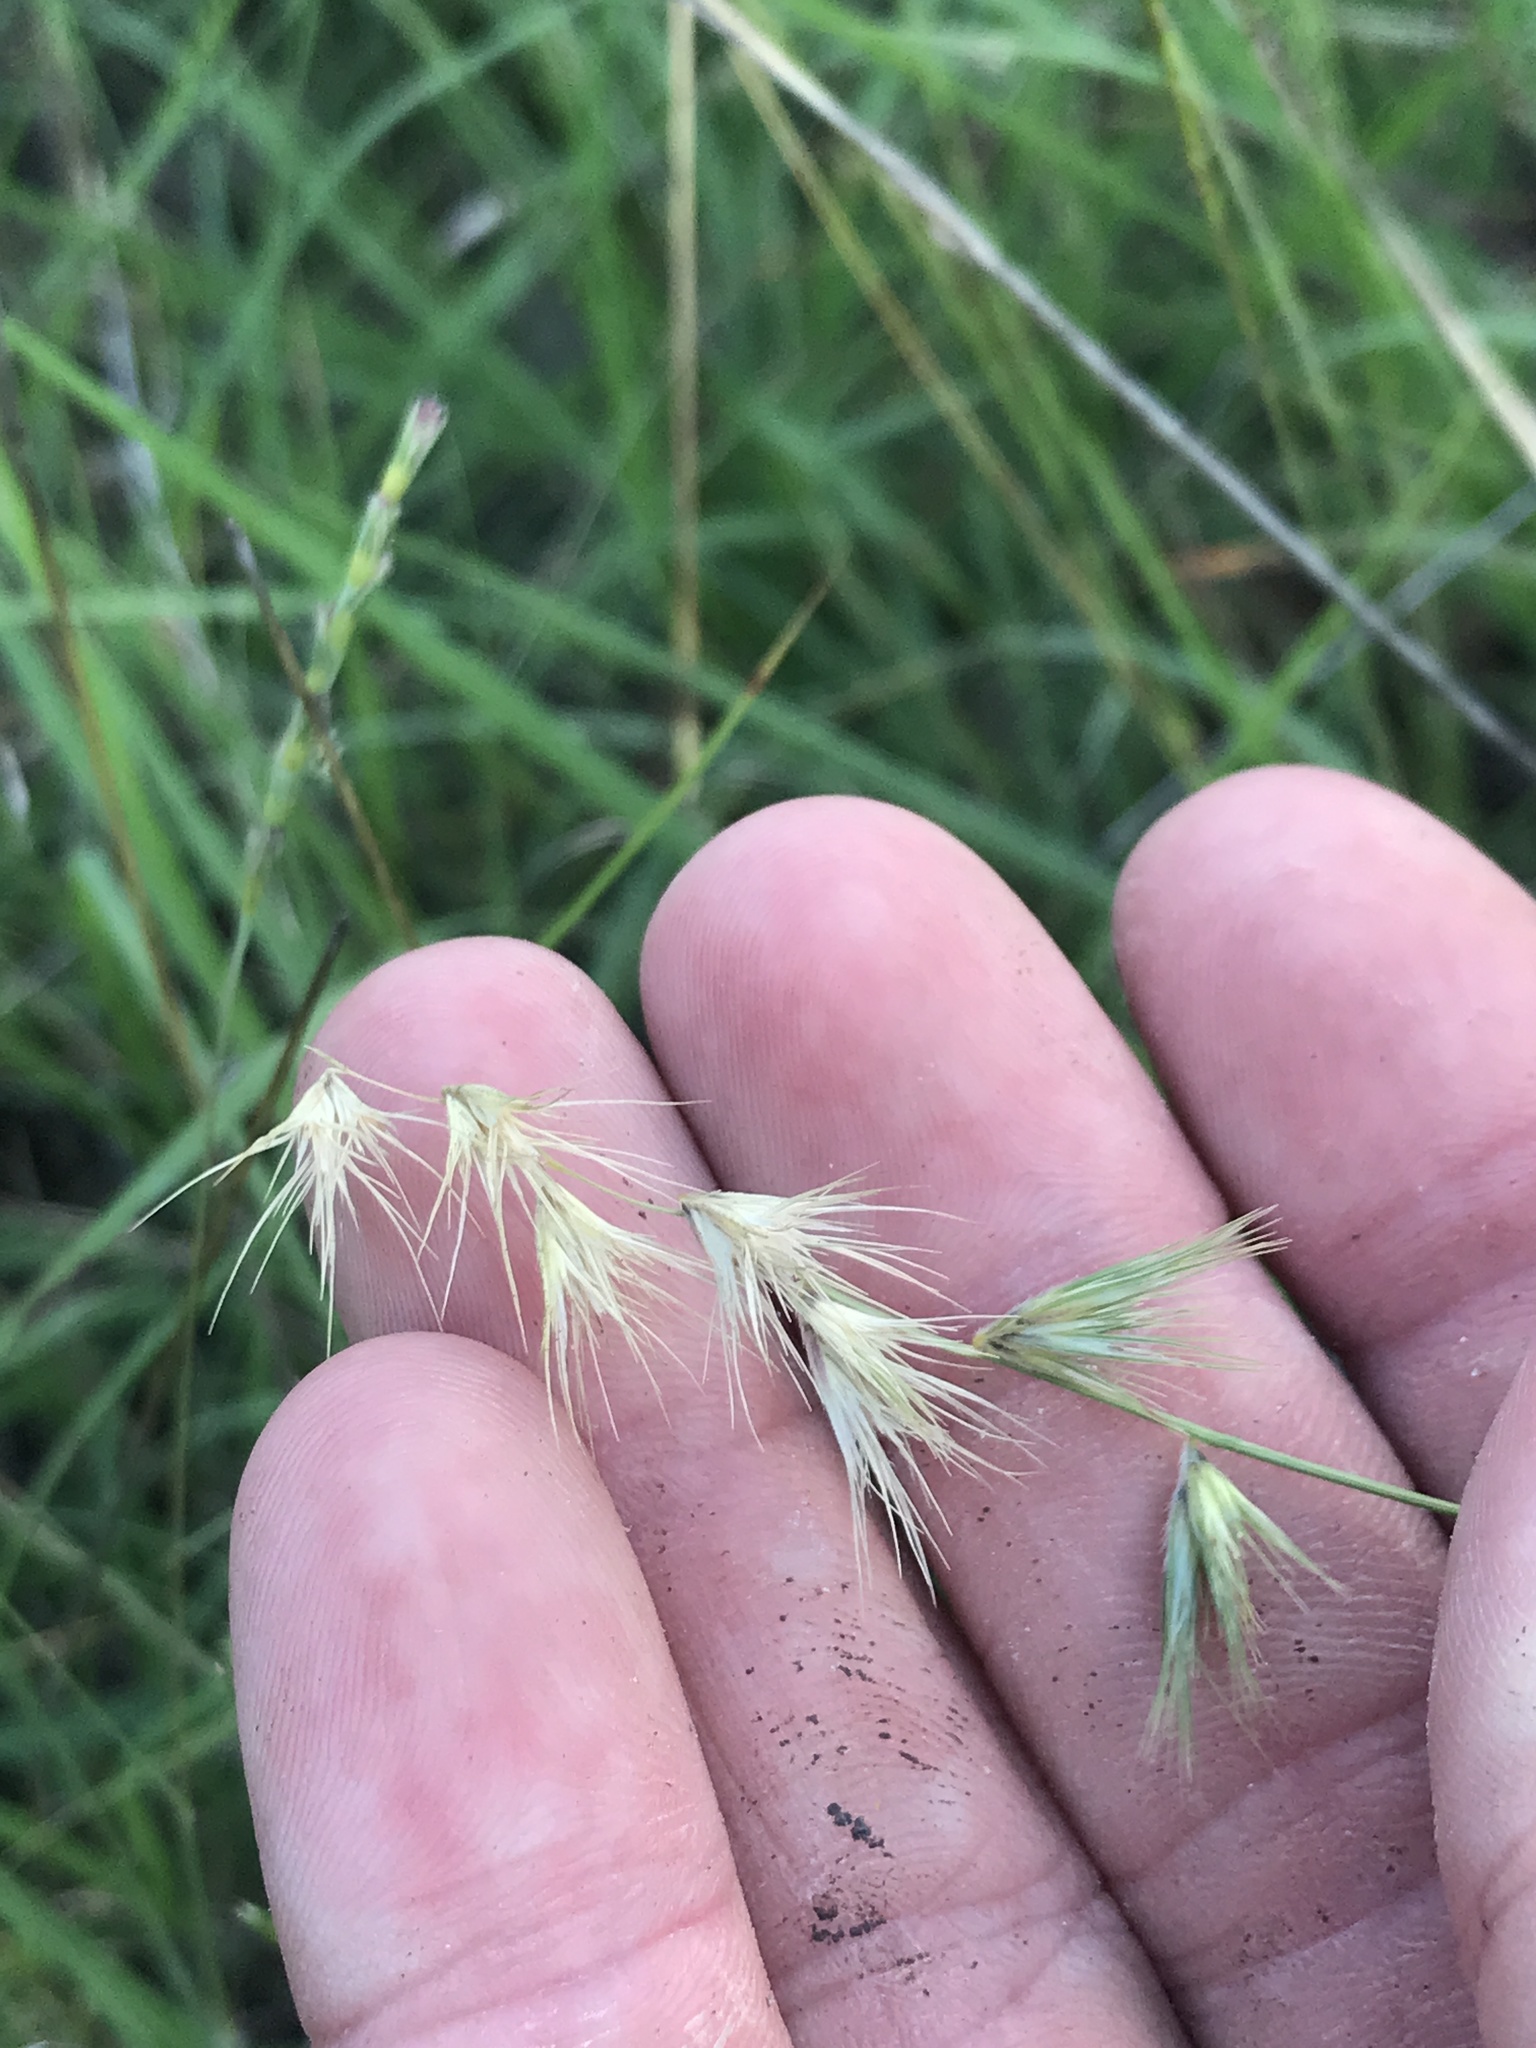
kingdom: Plantae
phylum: Tracheophyta
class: Liliopsida
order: Poales
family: Poaceae
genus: Bouteloua
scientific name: Bouteloua rigidiseta
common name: Texas grama
